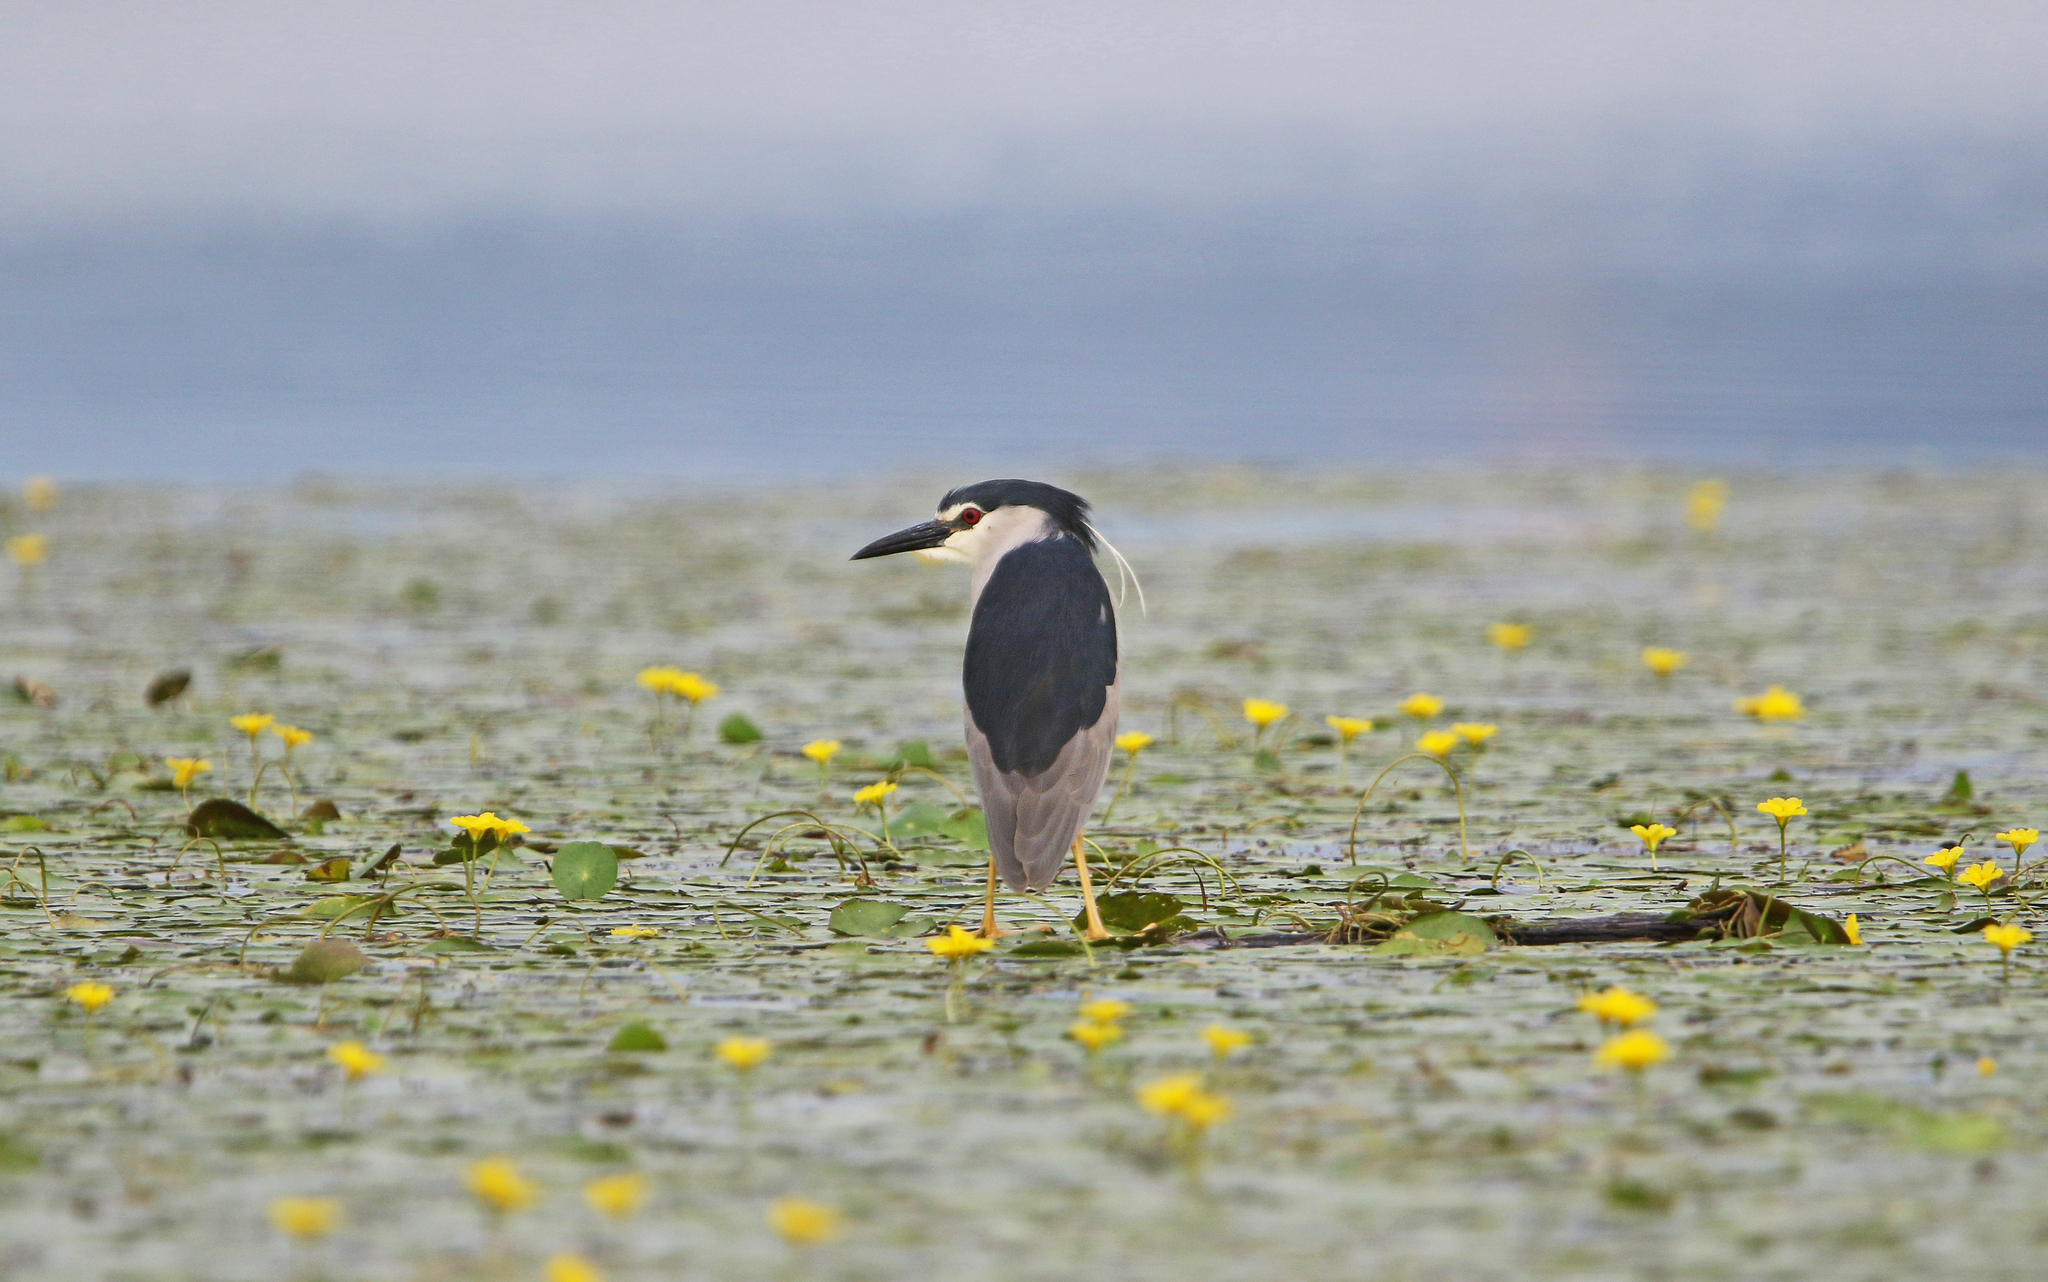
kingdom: Animalia
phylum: Chordata
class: Aves
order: Pelecaniformes
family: Ardeidae
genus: Nycticorax
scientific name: Nycticorax nycticorax
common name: Black-crowned night heron
